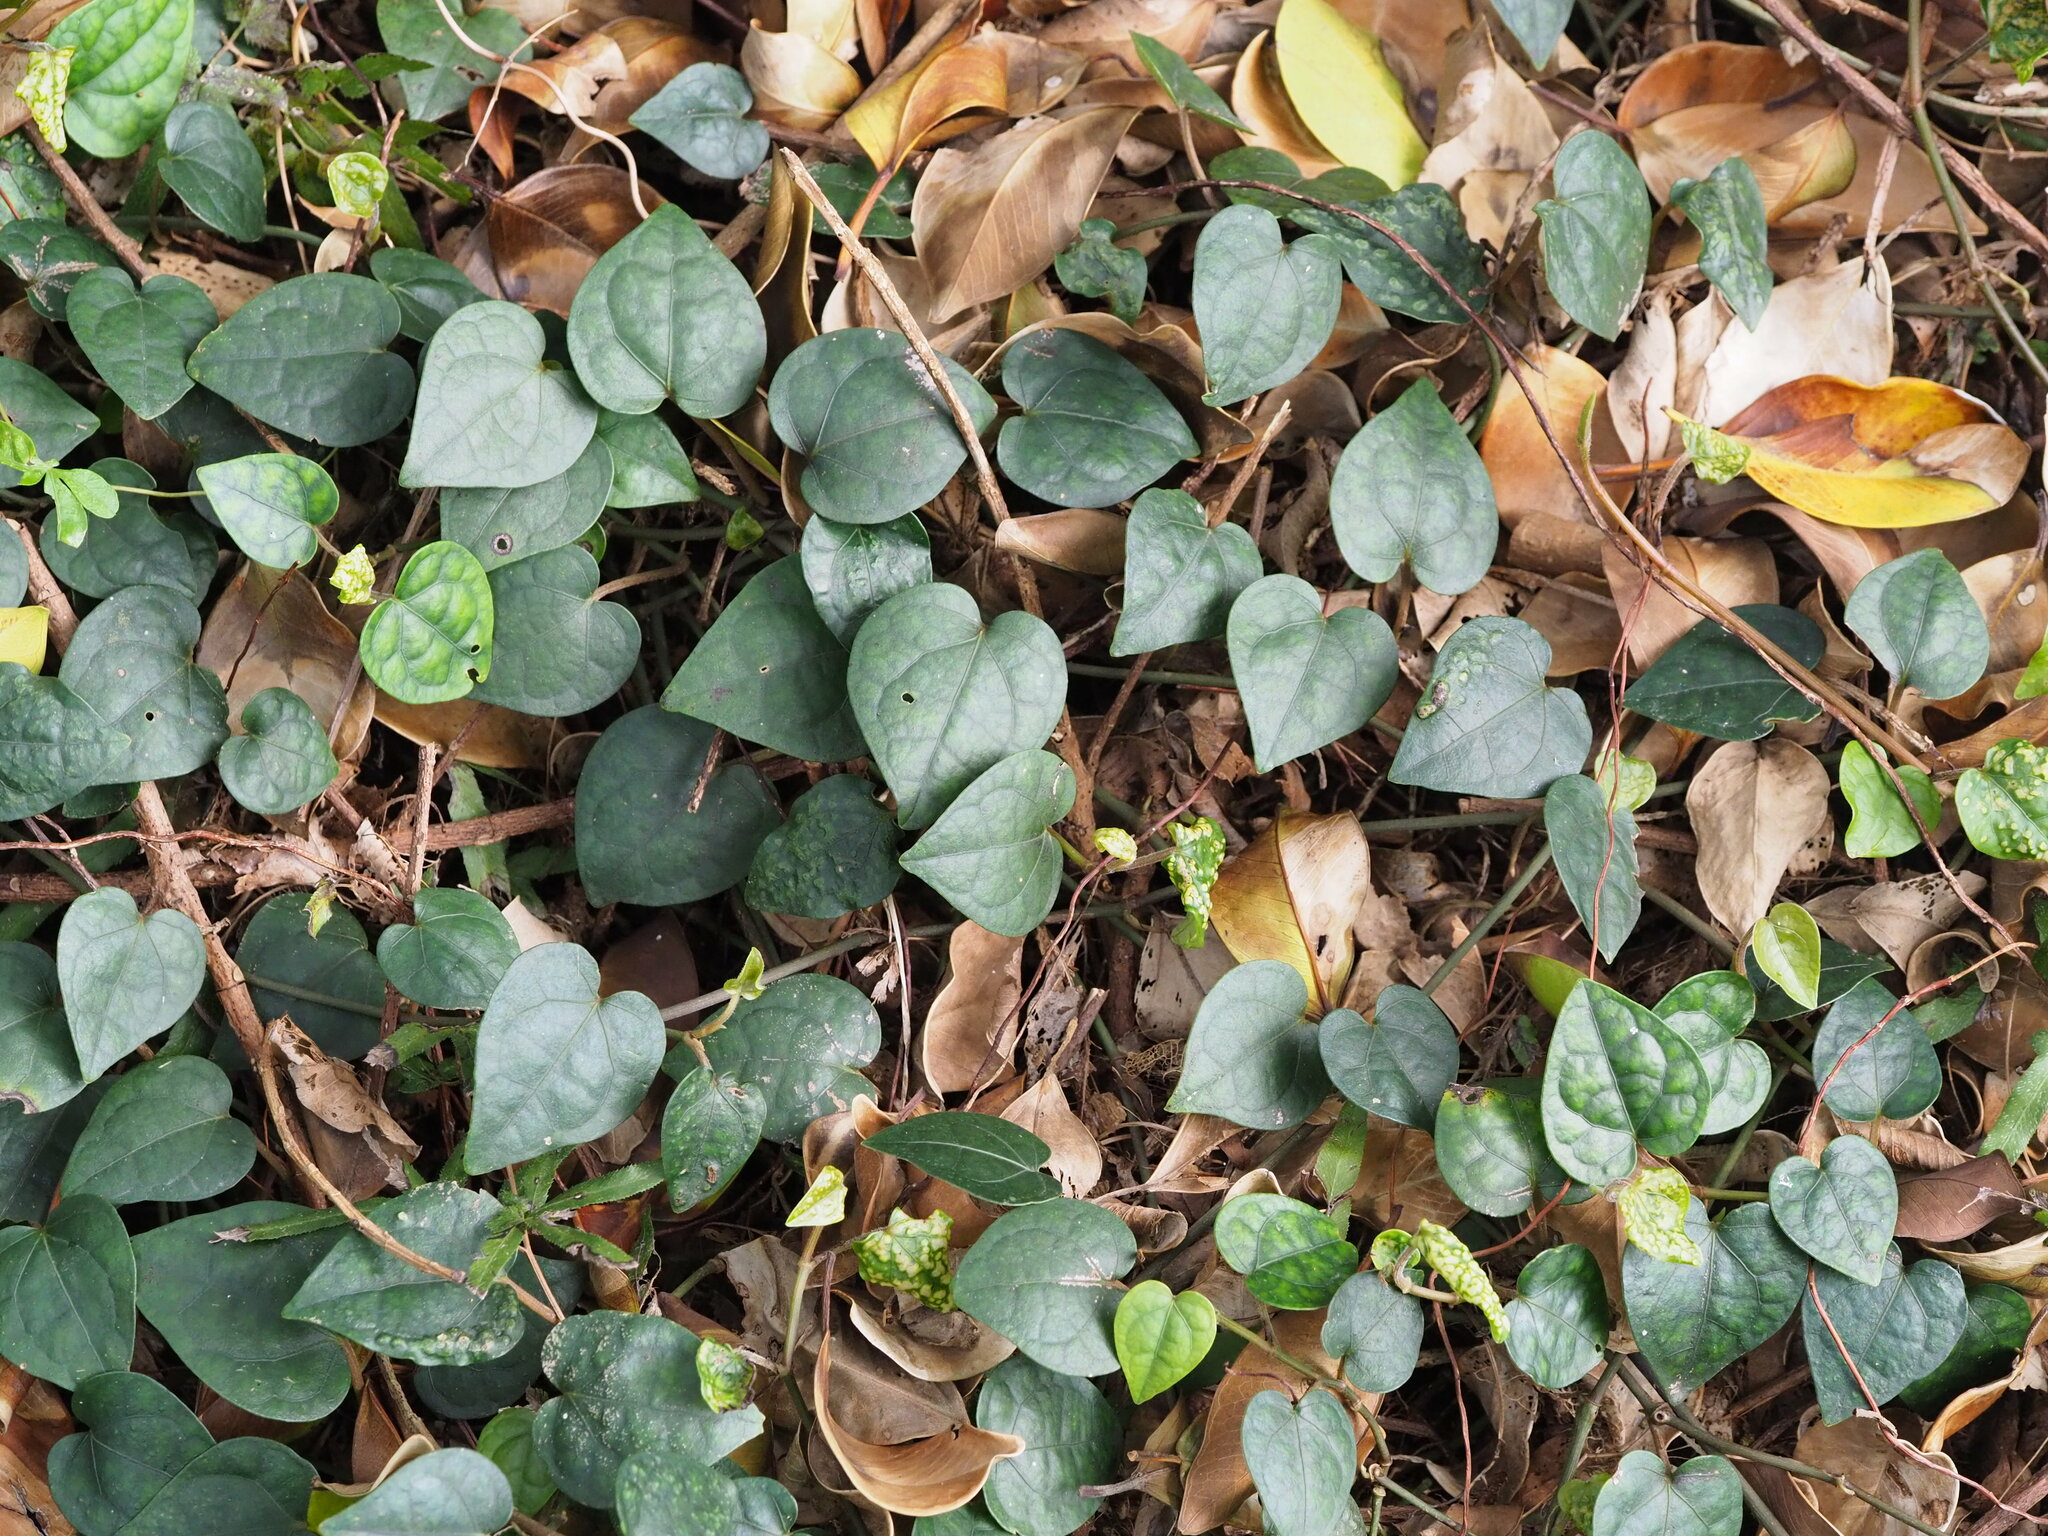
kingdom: Plantae
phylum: Tracheophyta
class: Magnoliopsida
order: Piperales
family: Piperaceae
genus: Piper
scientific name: Piper kadsura
